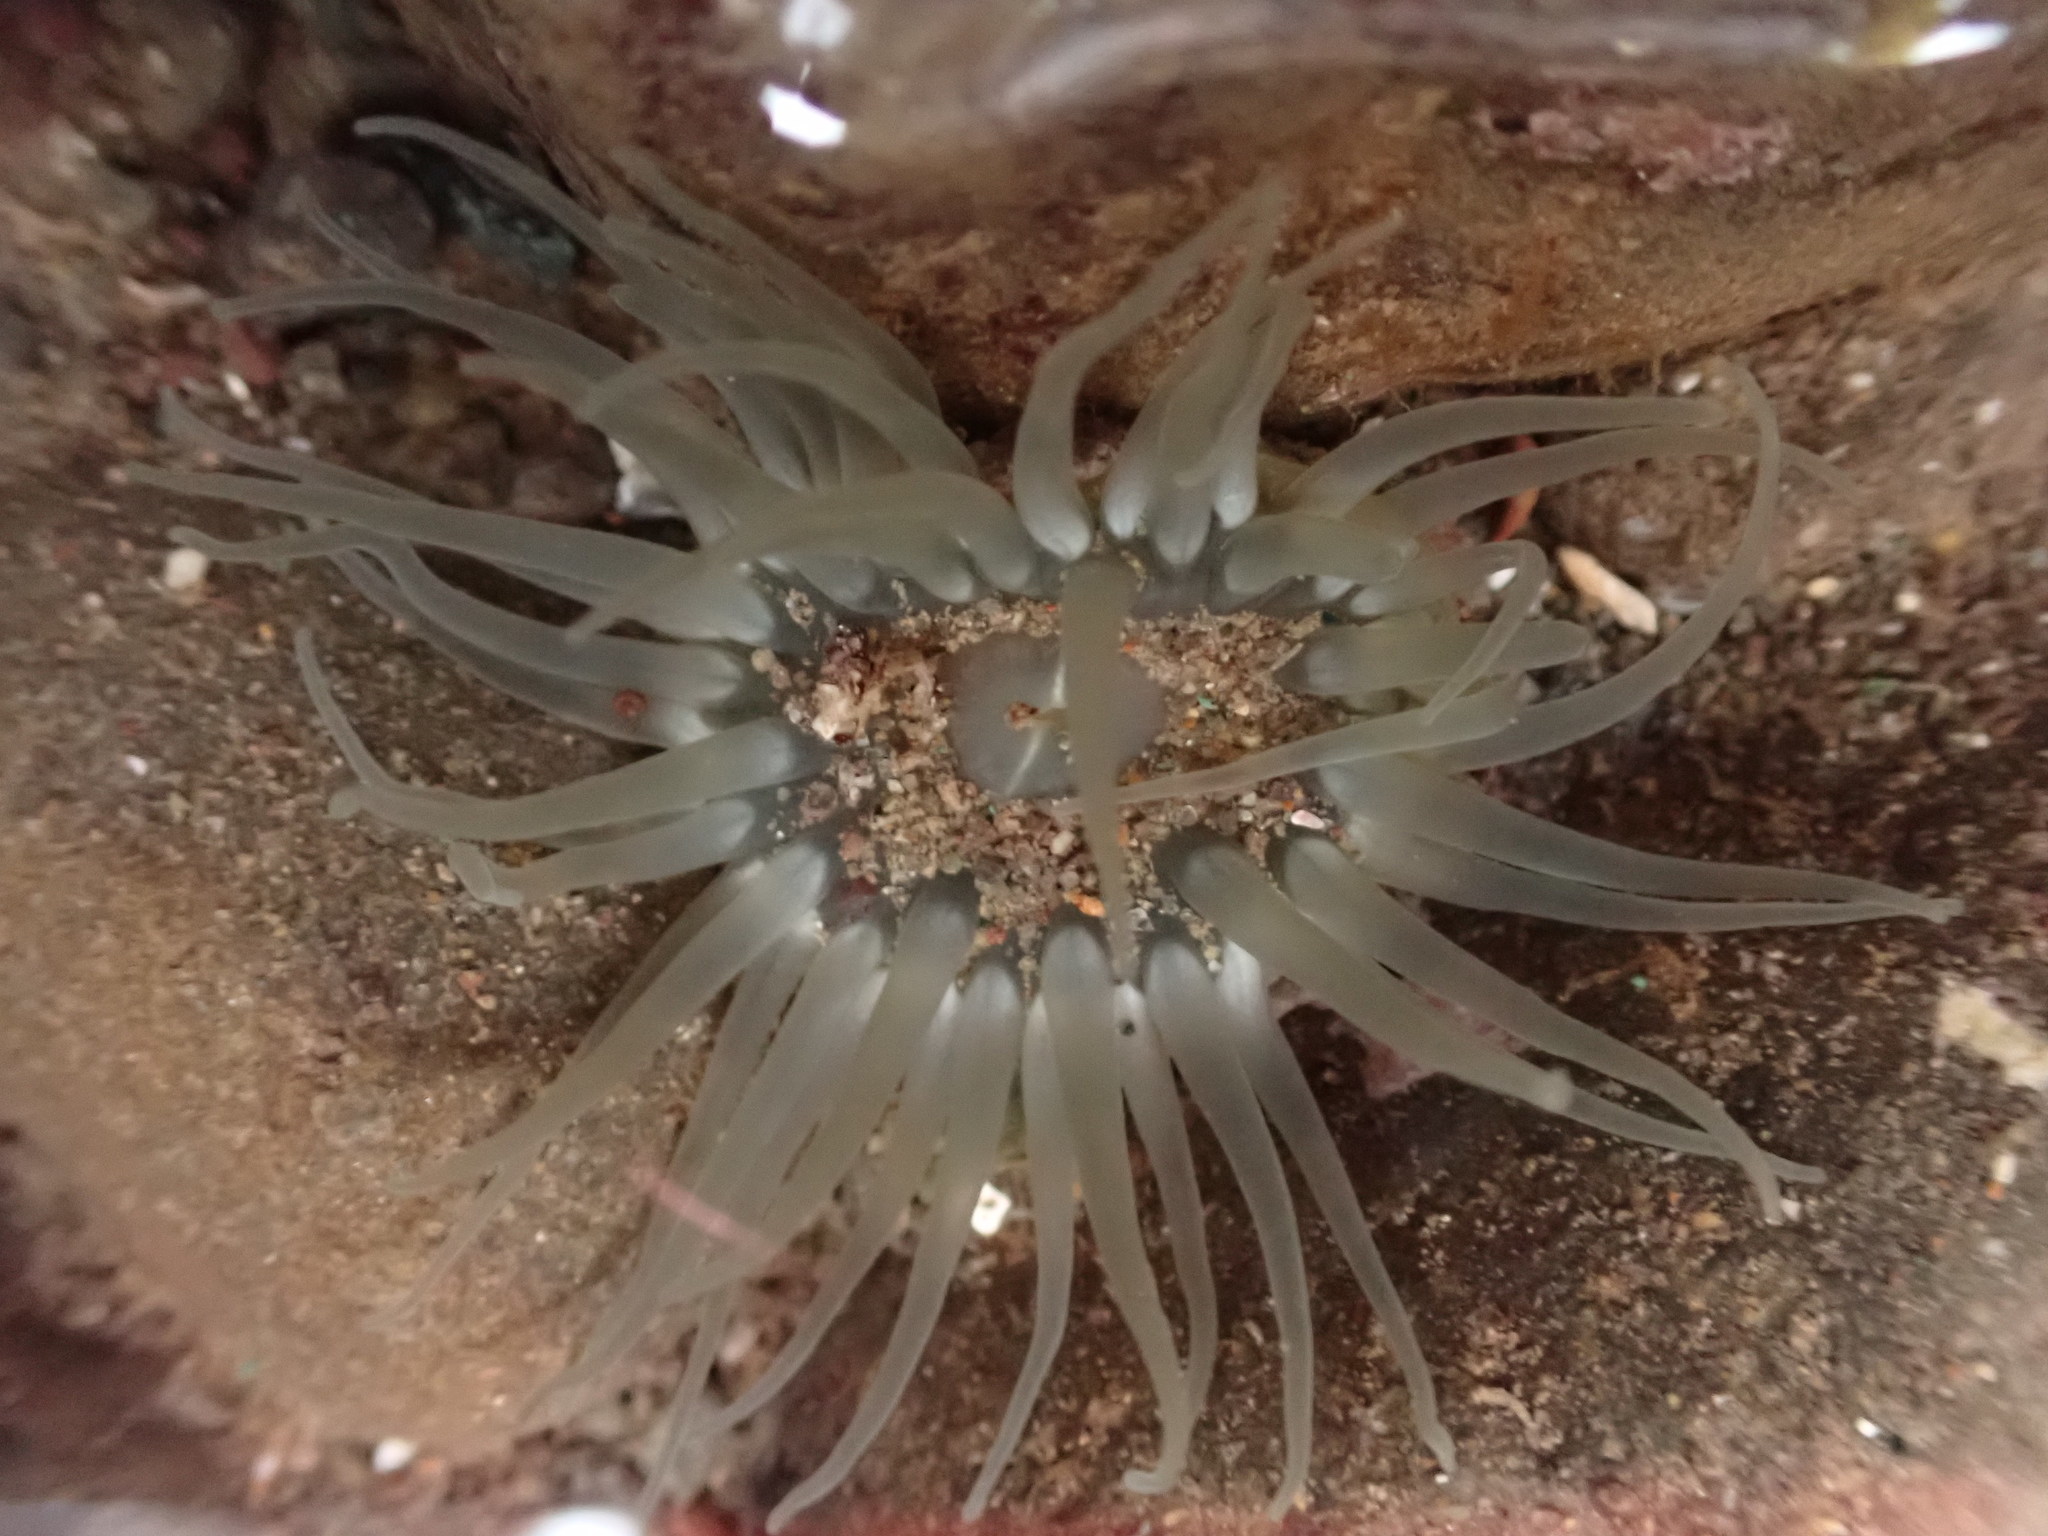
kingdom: Animalia
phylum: Cnidaria
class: Anthozoa
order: Actiniaria
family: Actiniidae
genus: Aulactinia
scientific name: Aulactinia stella
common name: Silver-spotted sea anemone
